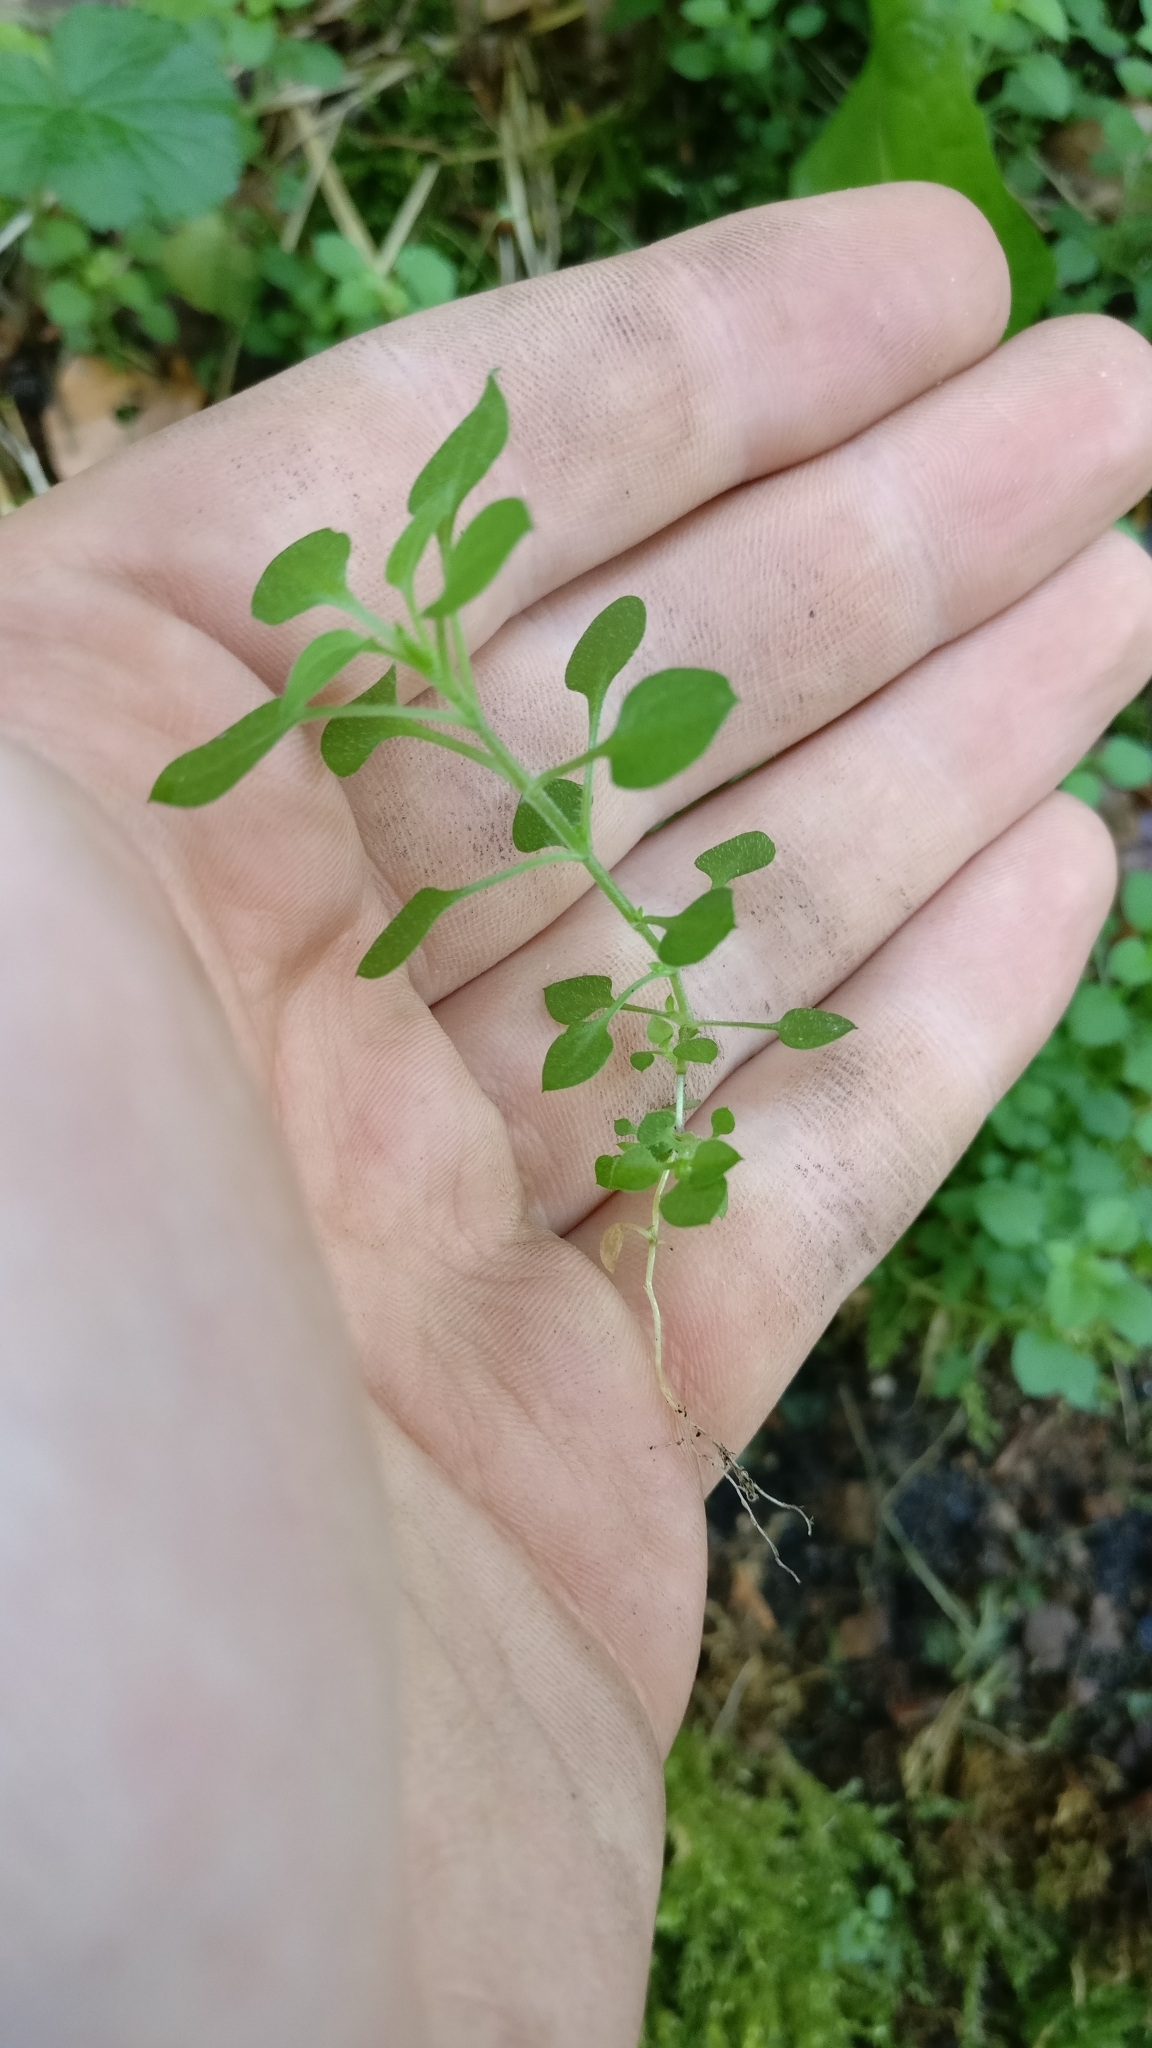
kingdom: Plantae
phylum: Tracheophyta
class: Magnoliopsida
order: Caryophyllales
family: Caryophyllaceae
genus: Stellaria
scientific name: Stellaria media
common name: Common chickweed
